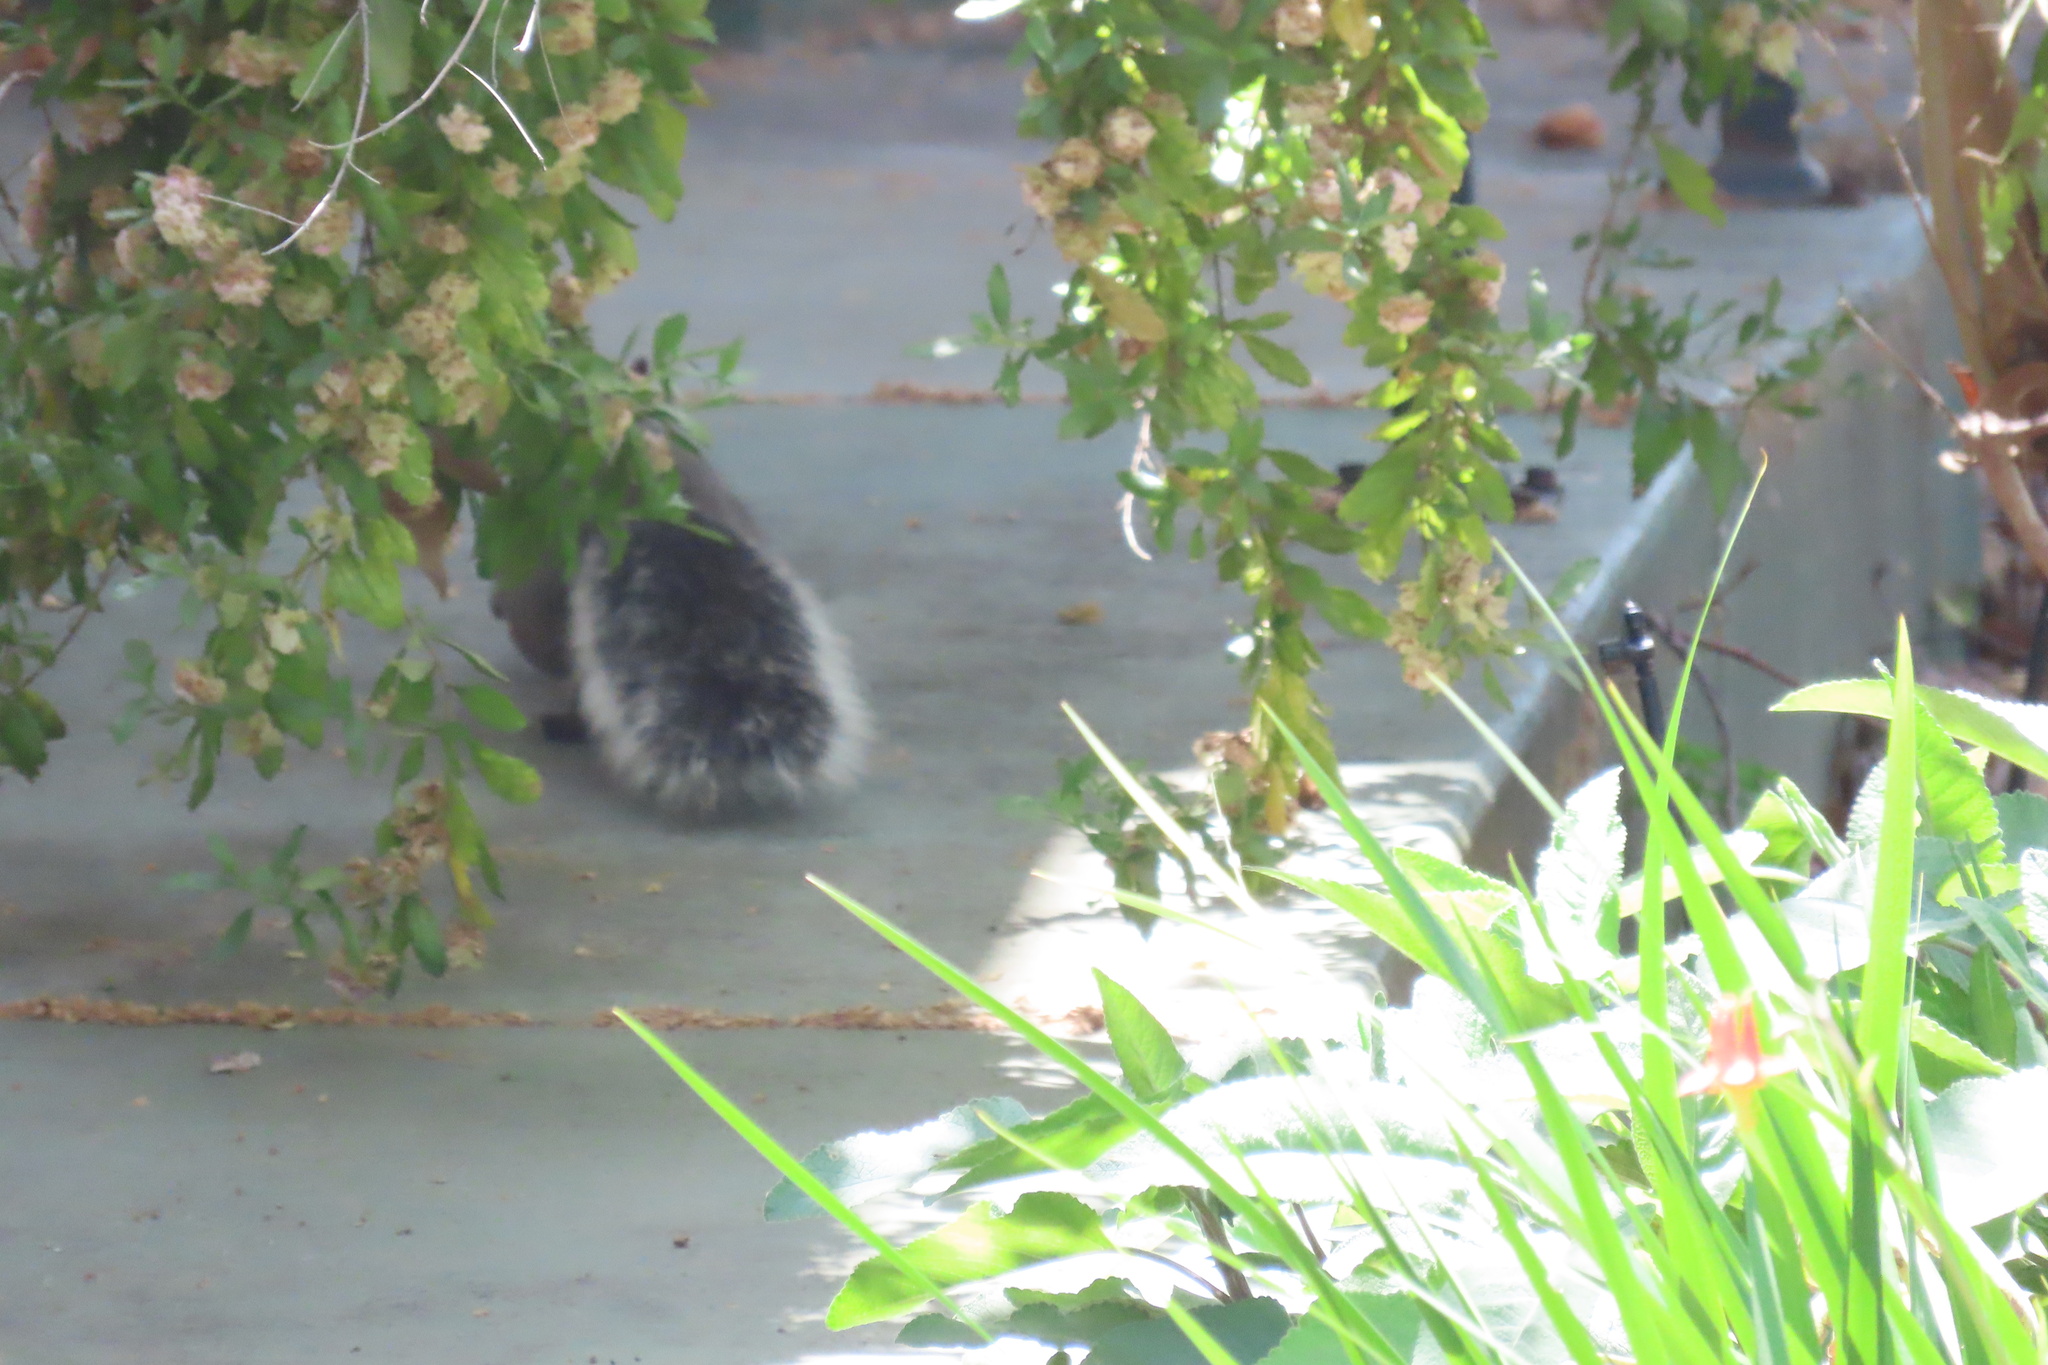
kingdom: Animalia
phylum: Chordata
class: Mammalia
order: Rodentia
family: Sciuridae
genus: Sciurus
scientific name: Sciurus griseus
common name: Western gray squirrel
